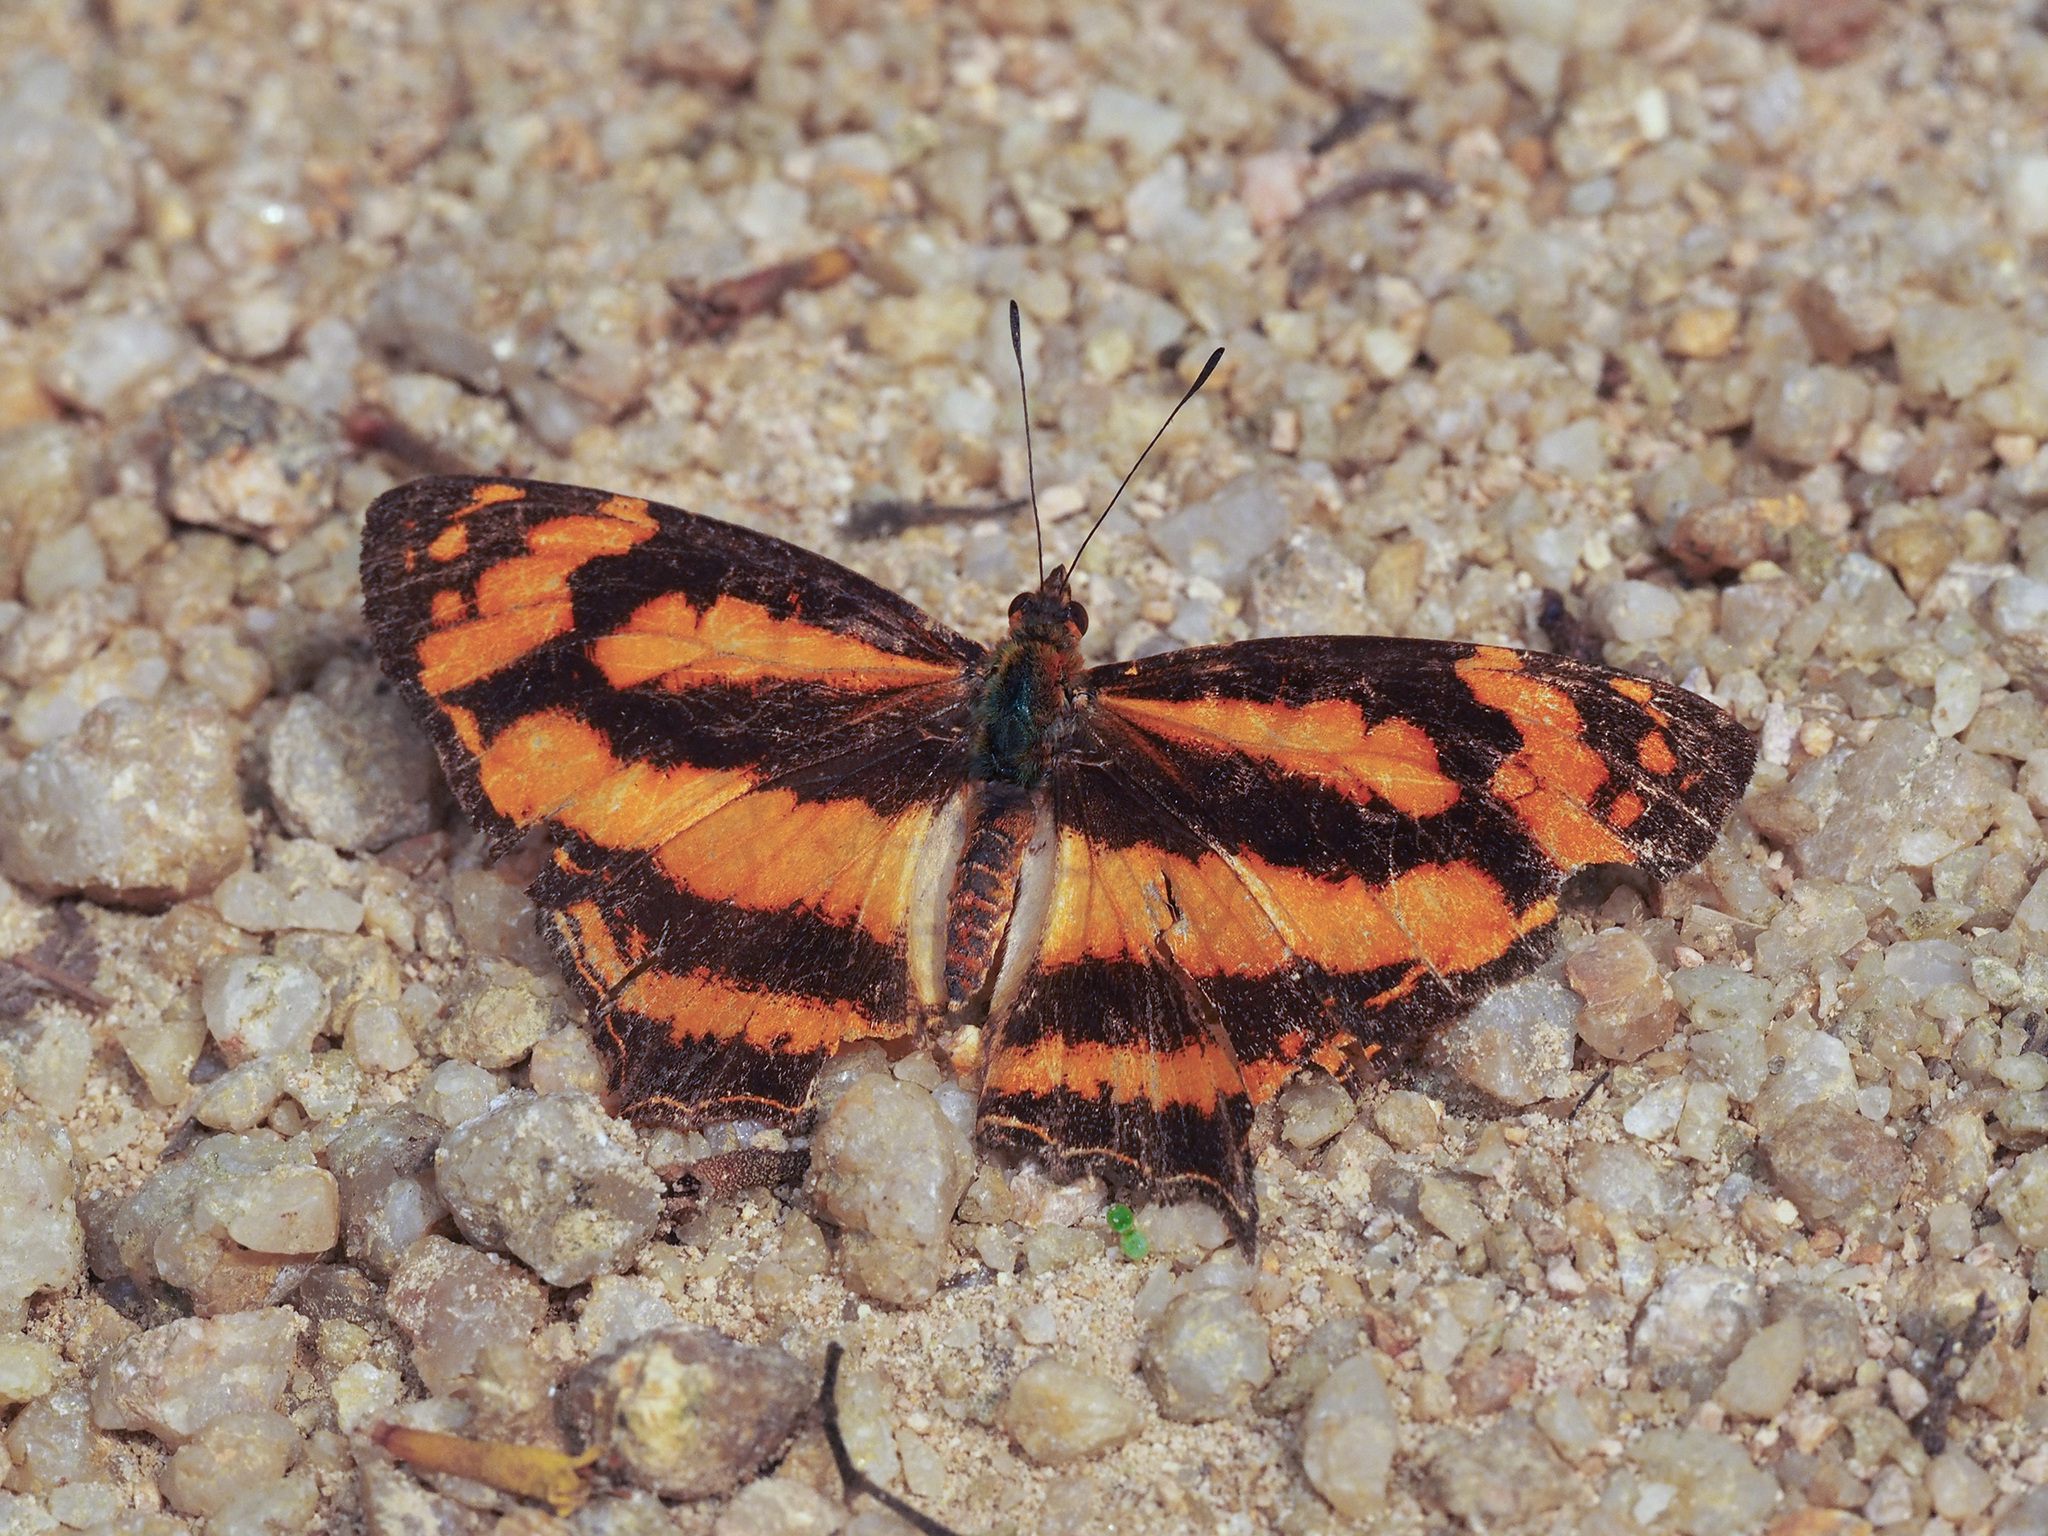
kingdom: Animalia
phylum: Arthropoda
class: Insecta
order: Lepidoptera
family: Nymphalidae
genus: Symbrenthia
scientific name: Symbrenthia hypselis
